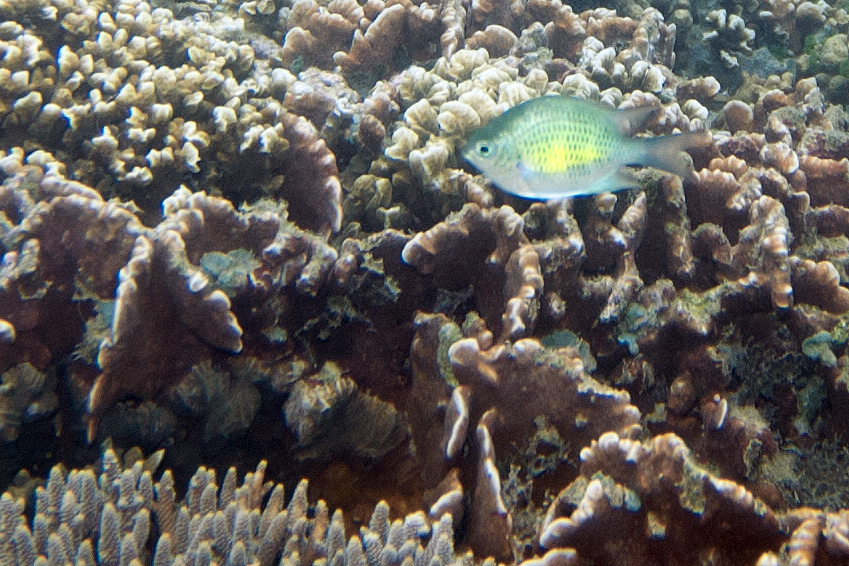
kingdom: Animalia
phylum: Chordata
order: Perciformes
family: Pomacentridae
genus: Amblyglyphidodon
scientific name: Amblyglyphidodon curacao
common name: Staghorn damsel
